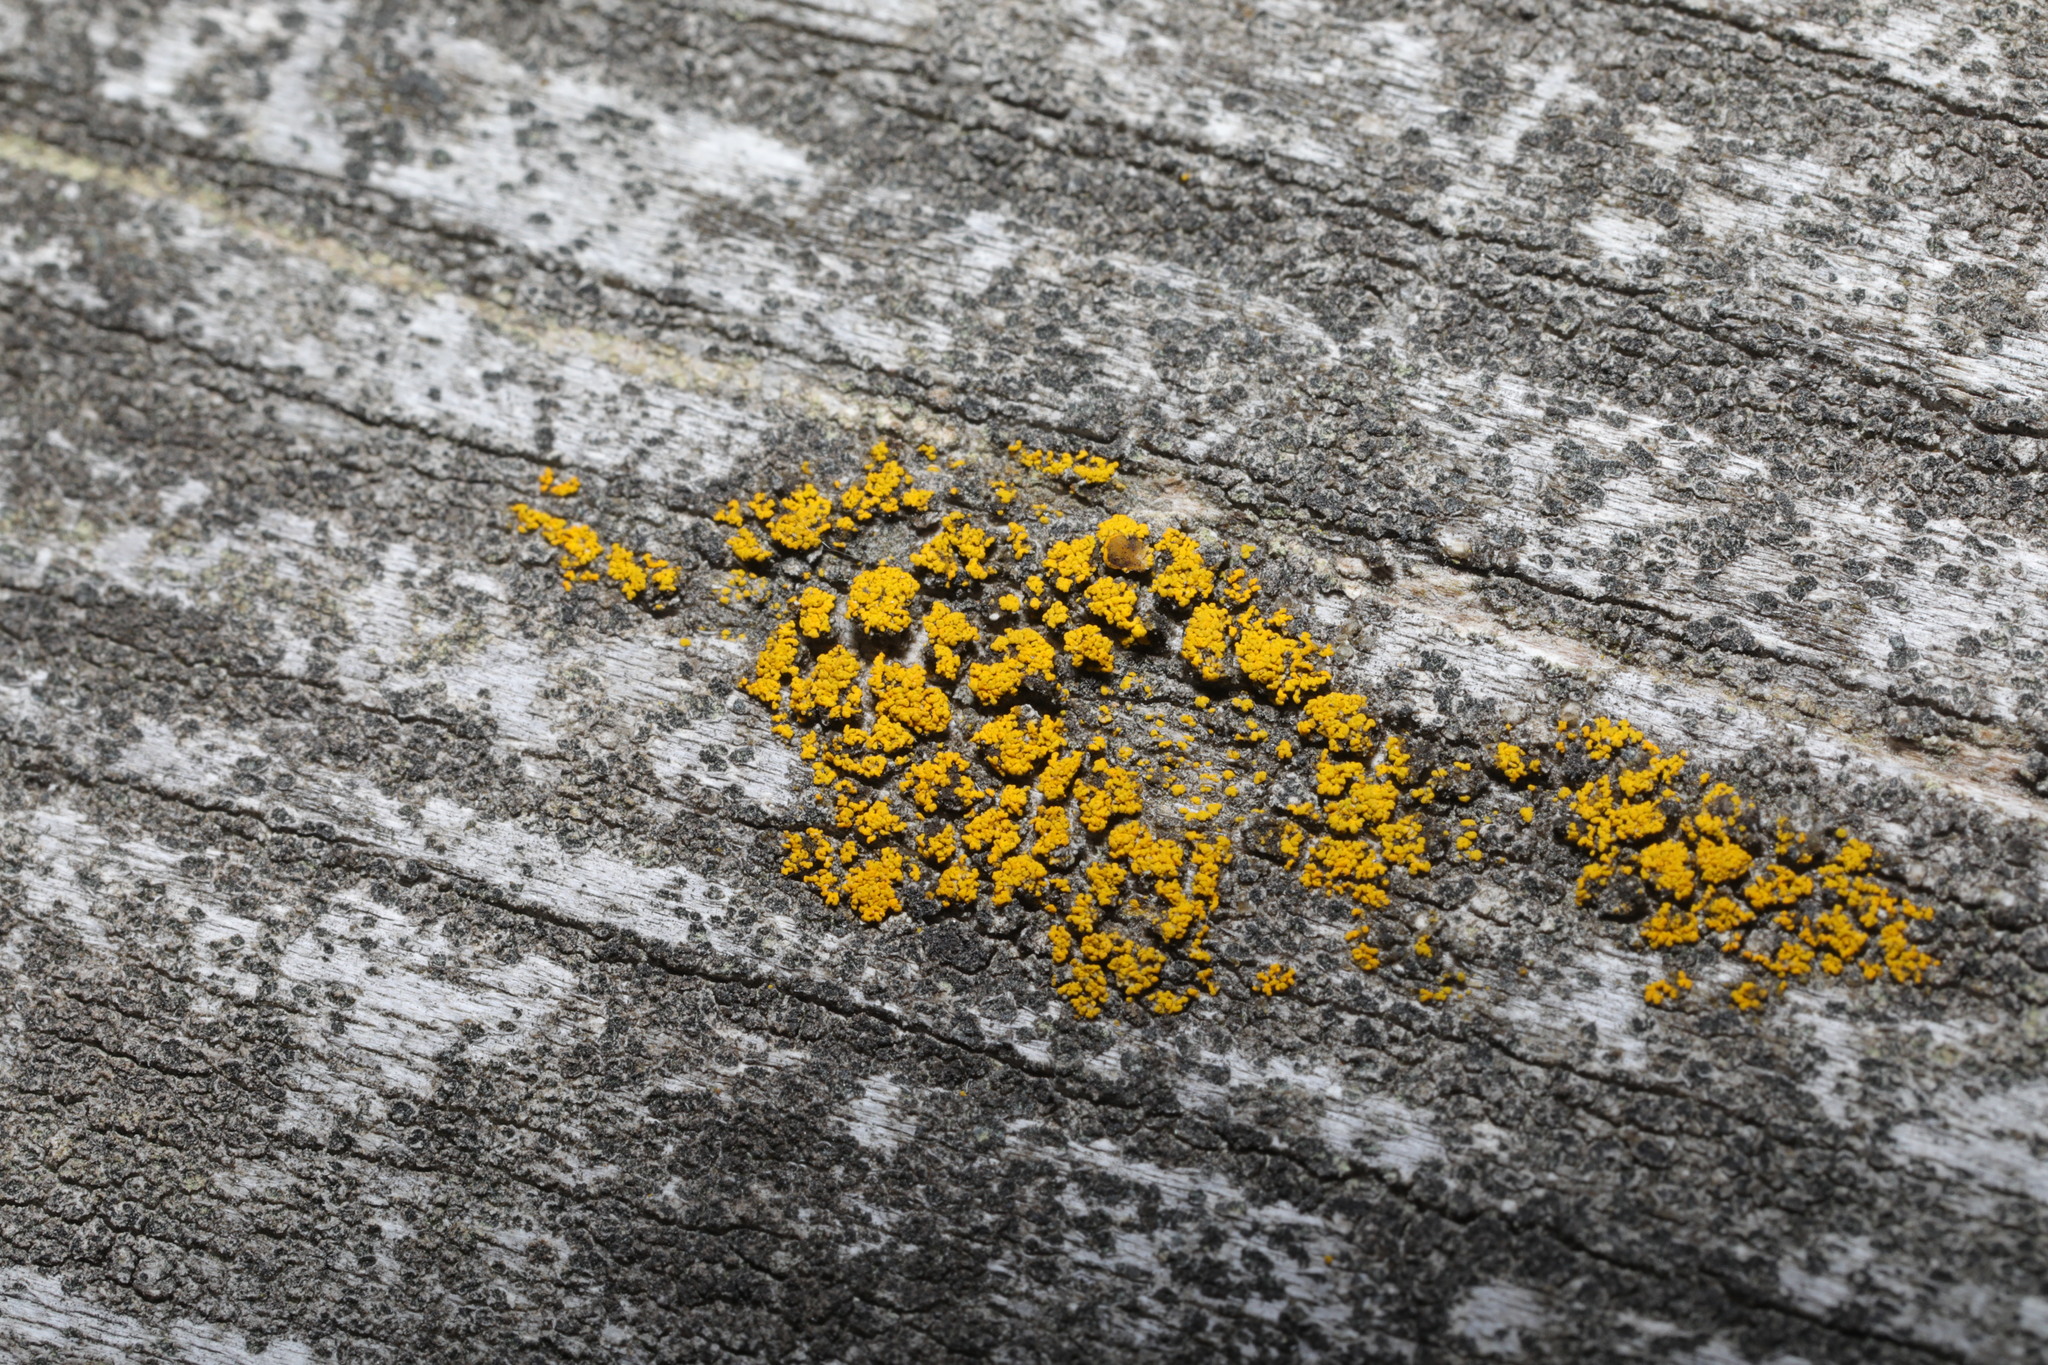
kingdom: Fungi
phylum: Ascomycota
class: Candelariomycetes
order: Candelariales
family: Candelariaceae
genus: Candelariella
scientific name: Candelariella vitellina
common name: Common goldspeck
